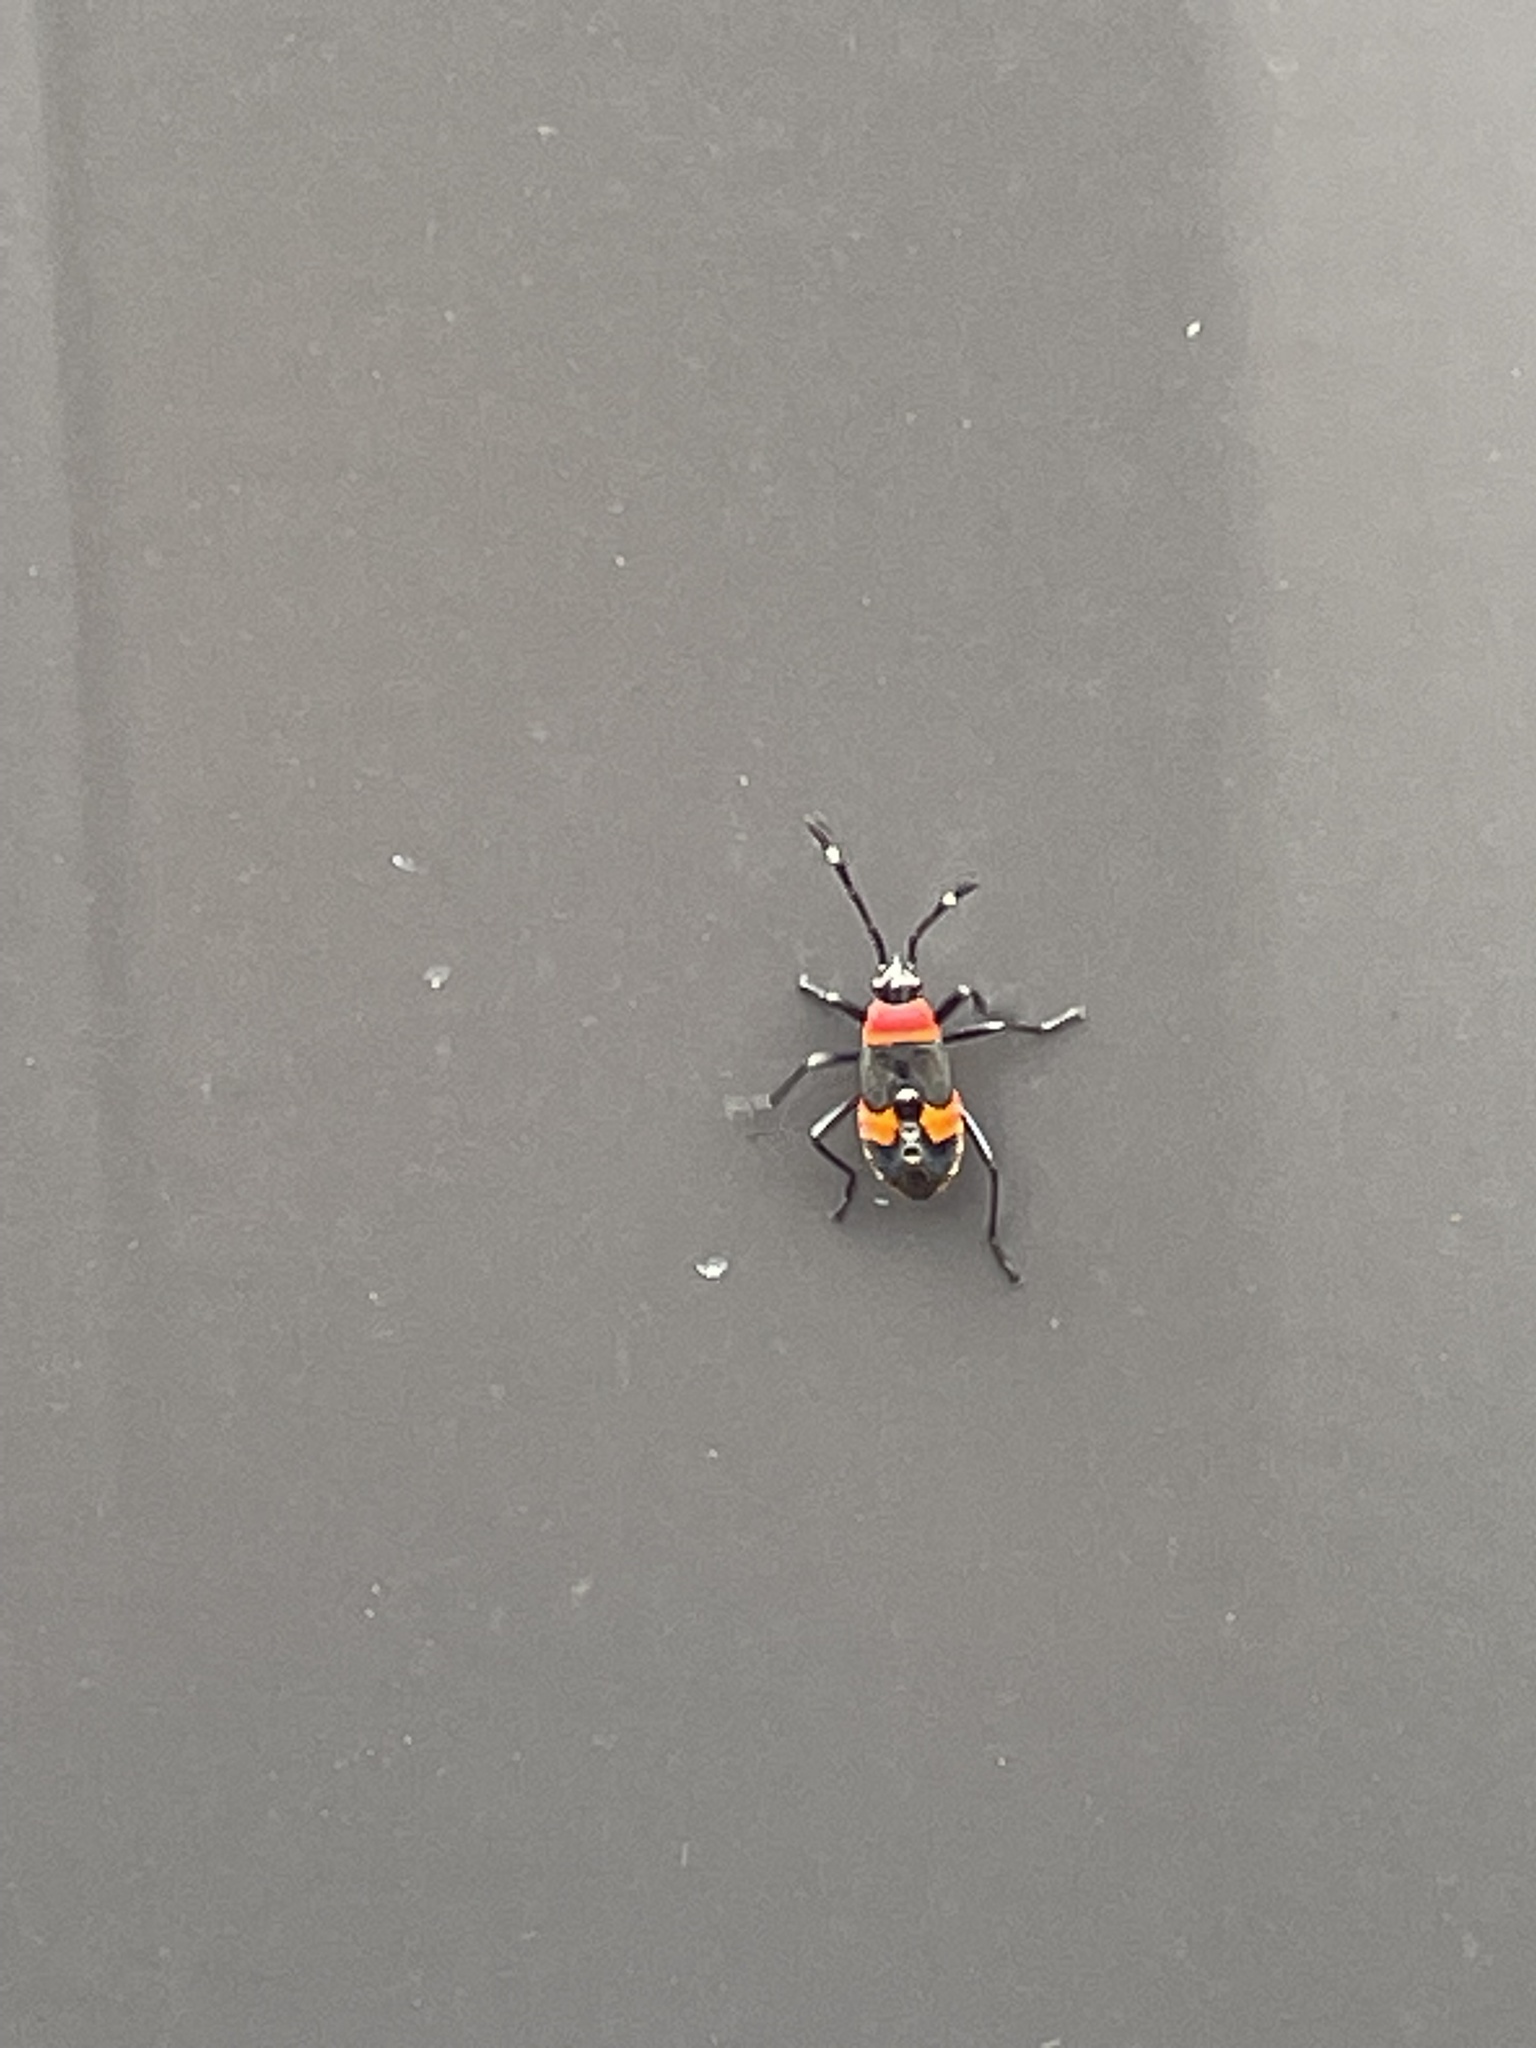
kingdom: Animalia
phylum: Arthropoda
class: Insecta
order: Hemiptera
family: Pyrrhocoridae
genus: Dindymus
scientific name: Dindymus
